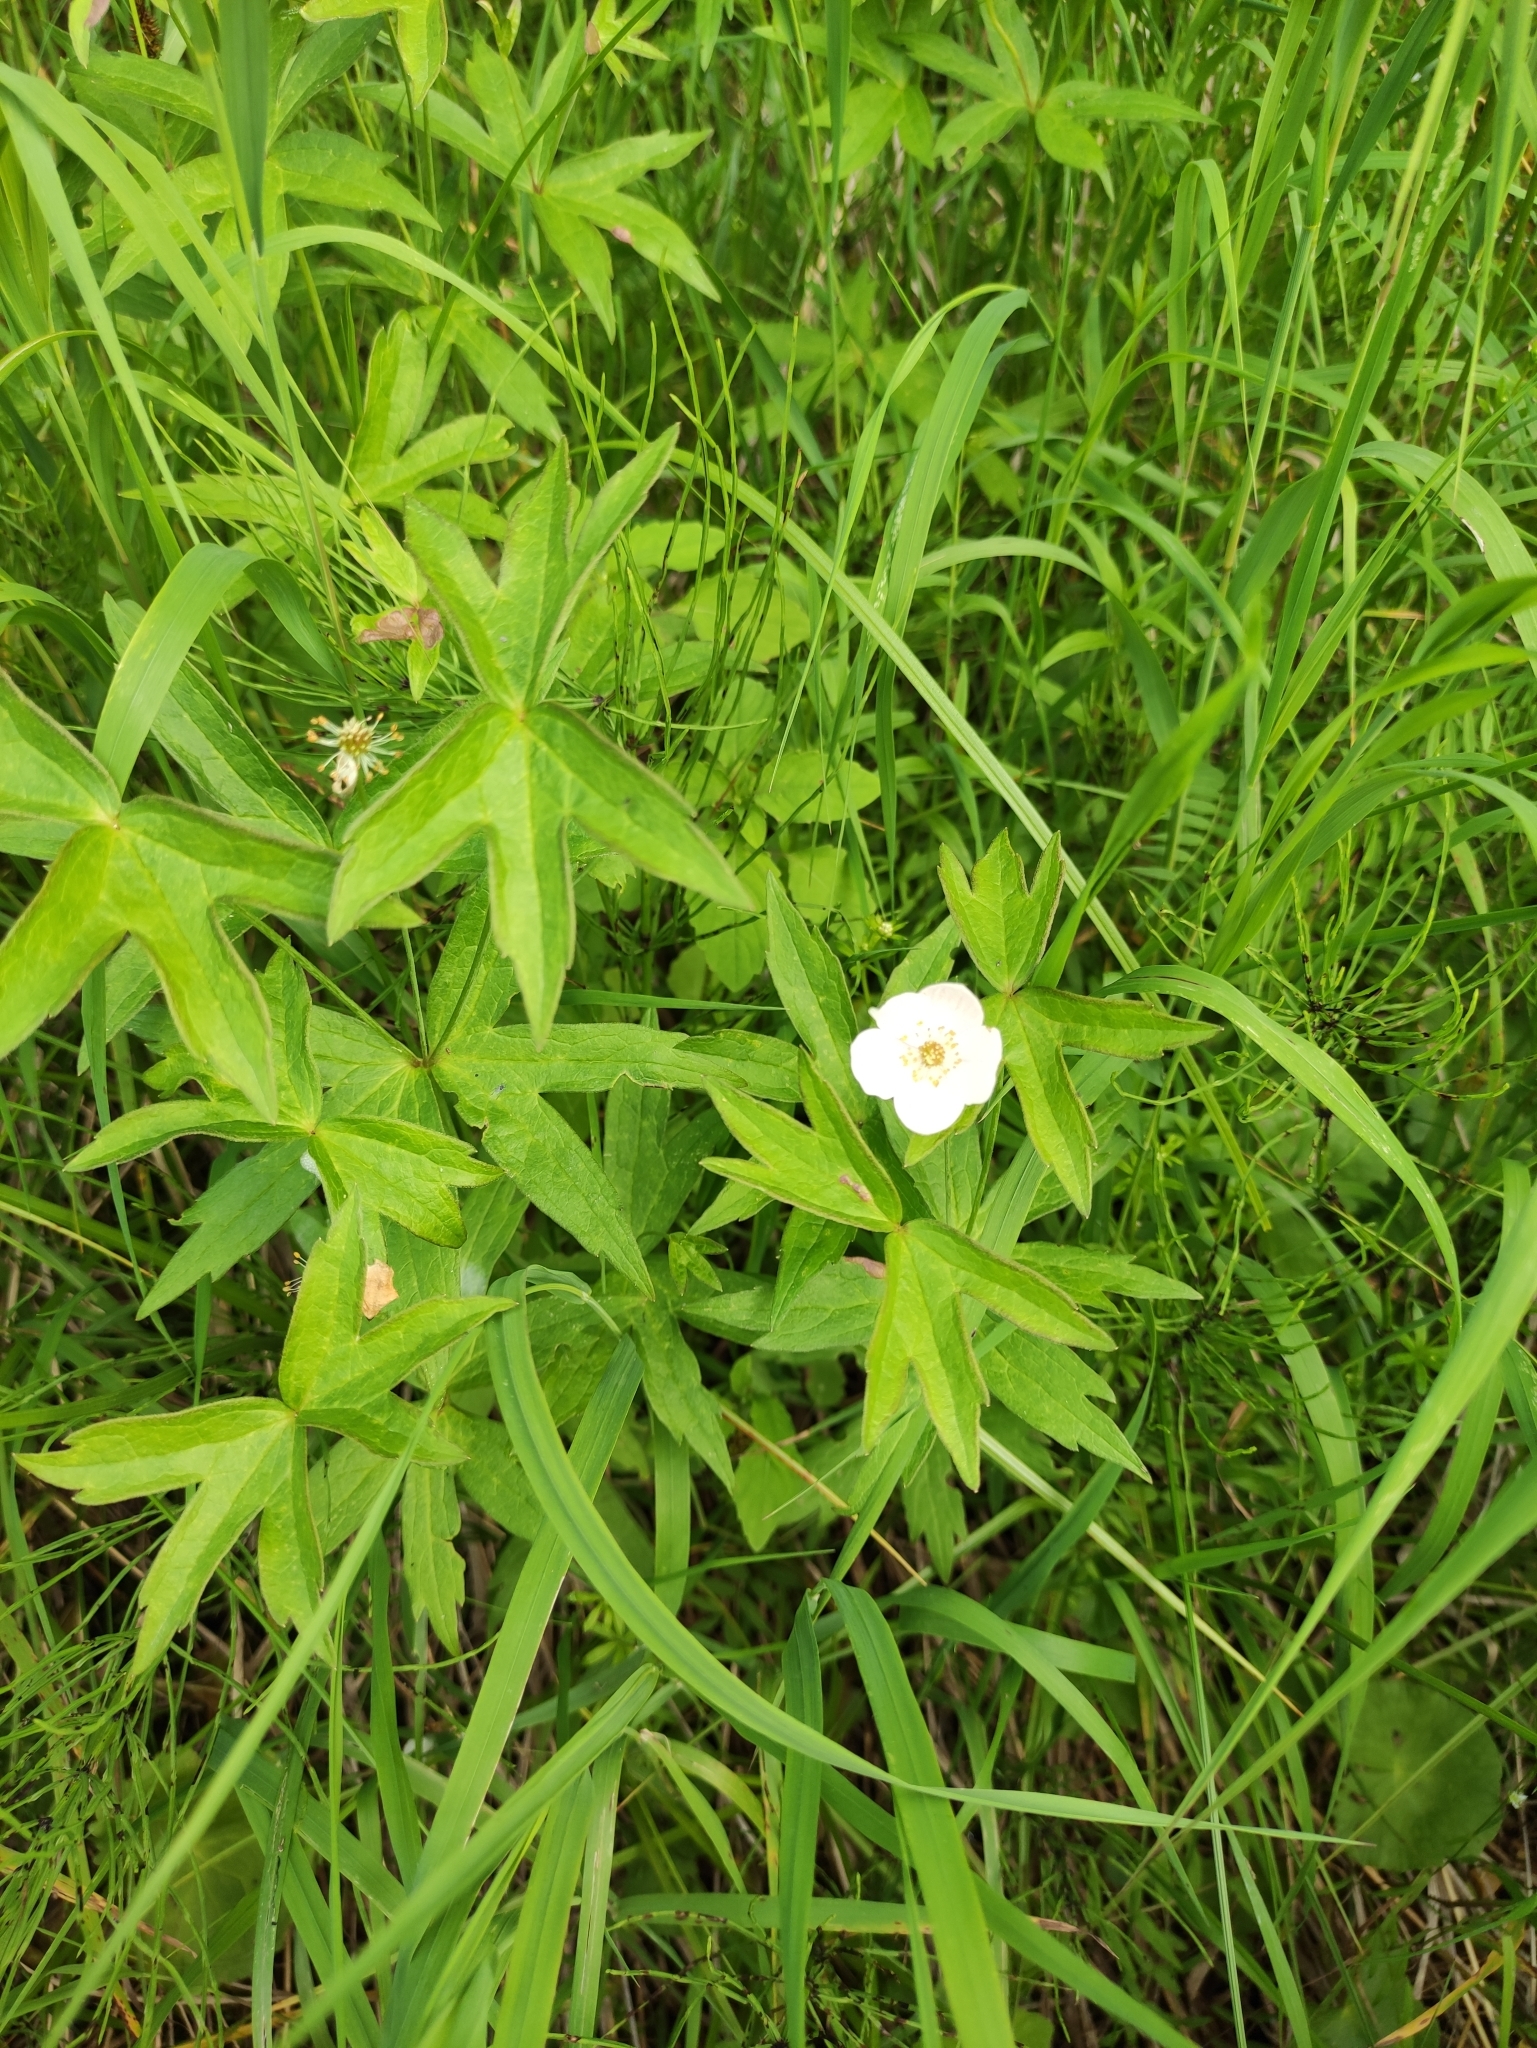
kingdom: Plantae
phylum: Tracheophyta
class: Magnoliopsida
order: Ranunculales
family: Ranunculaceae
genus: Anemonastrum
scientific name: Anemonastrum dichotomum
